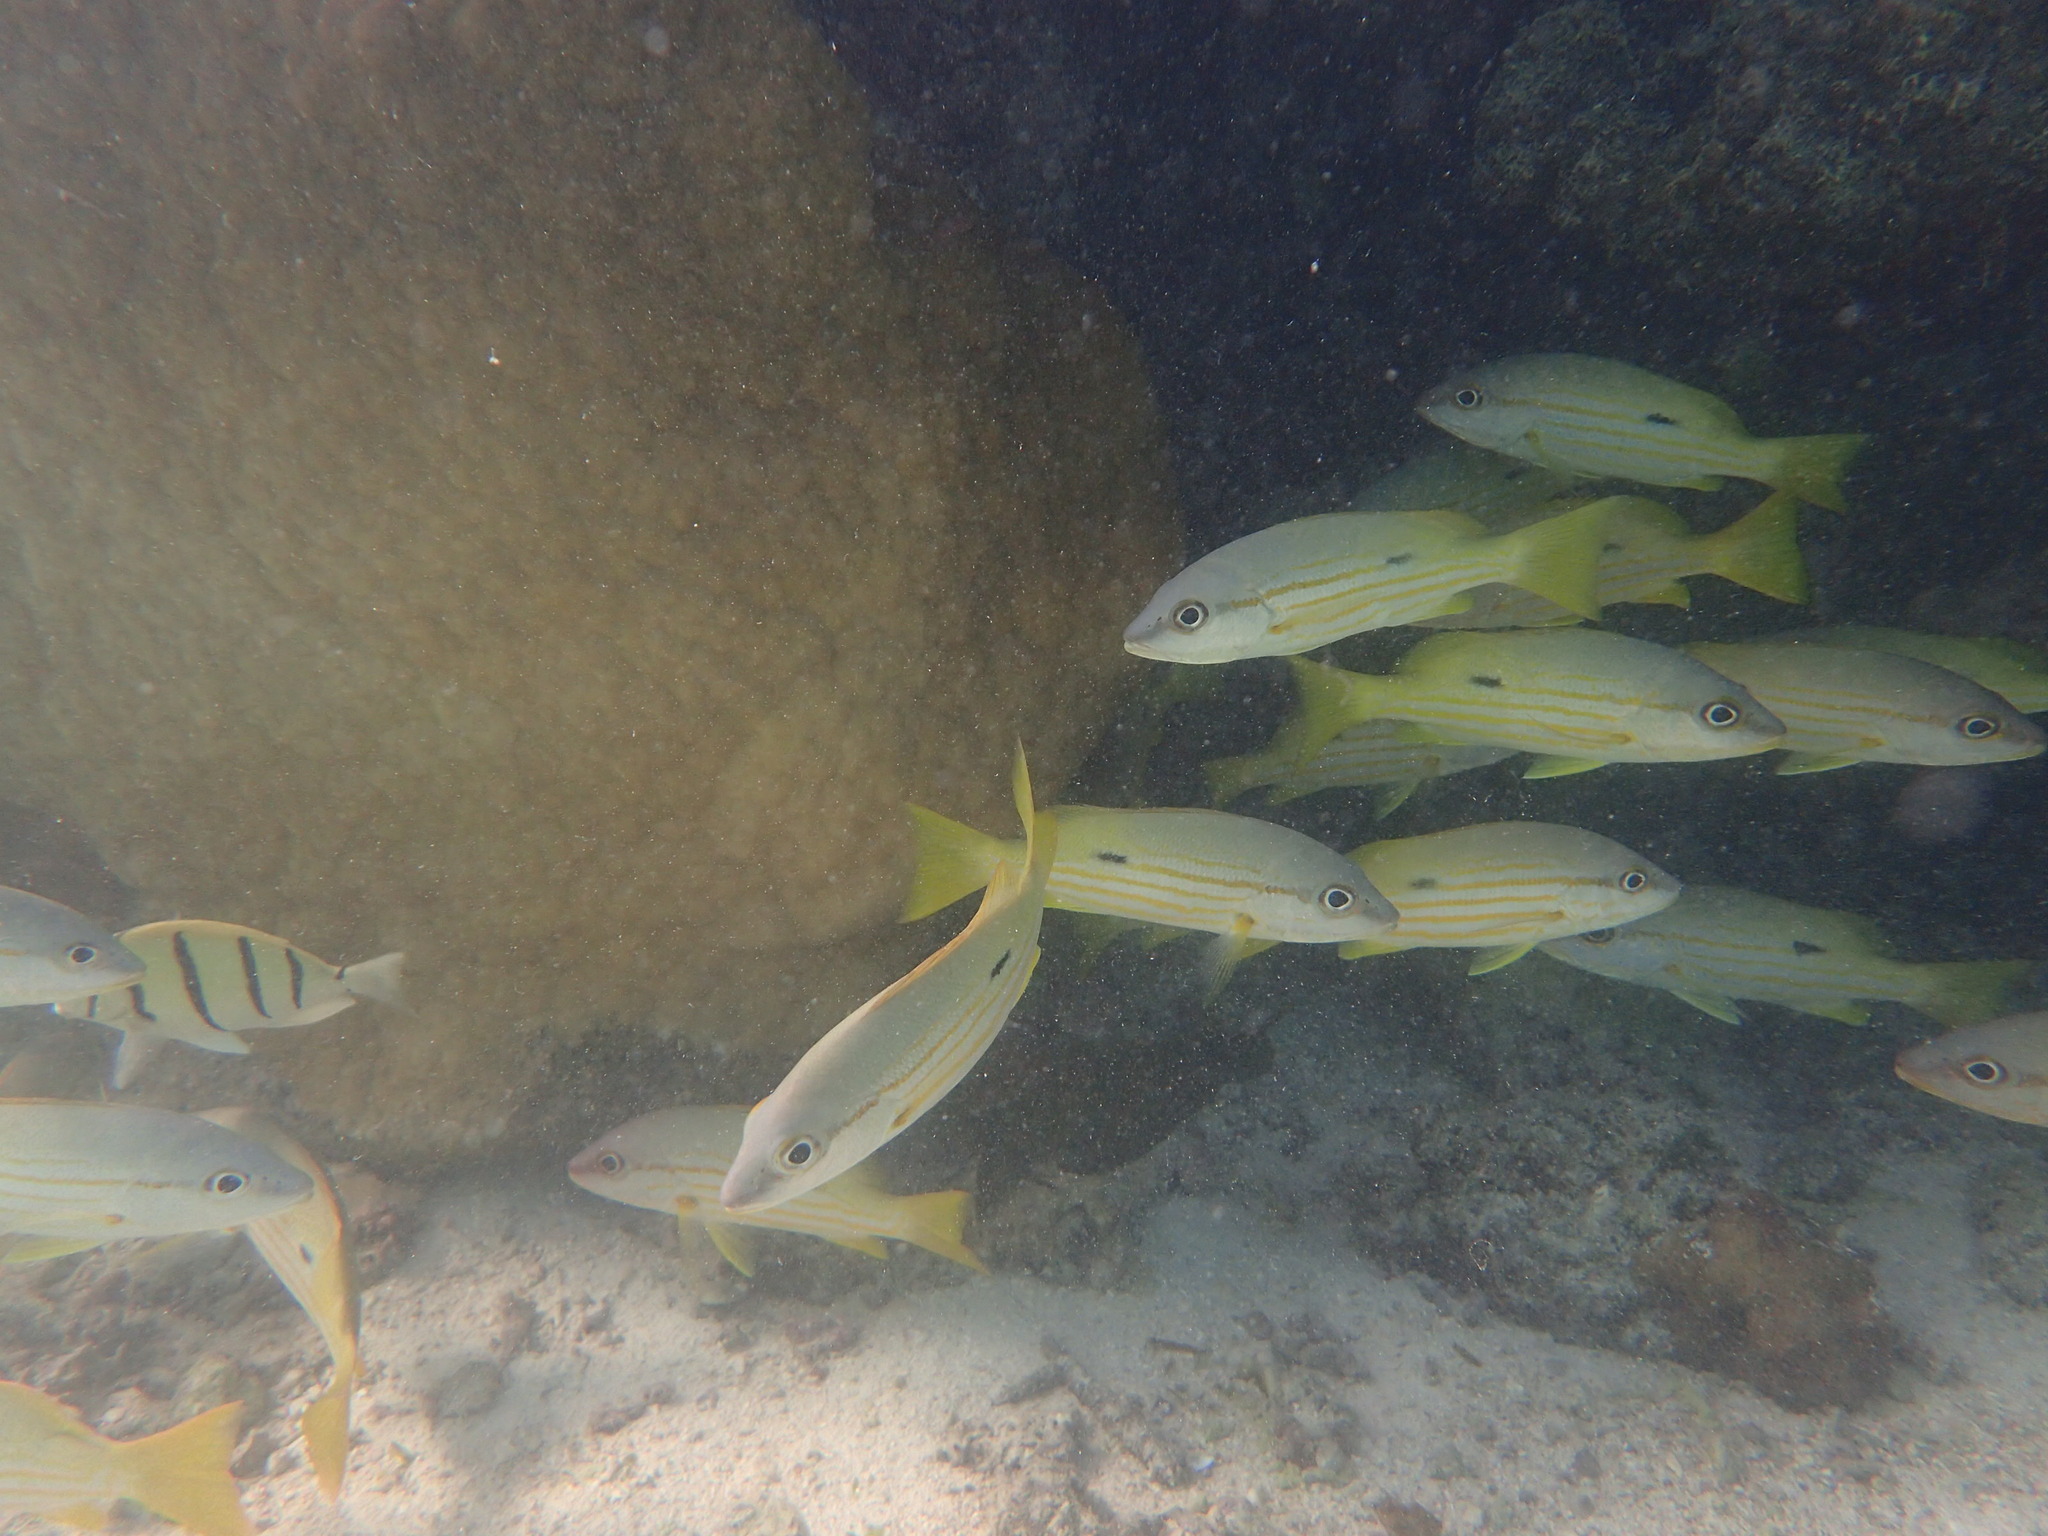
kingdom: Animalia
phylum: Chordata
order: Perciformes
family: Lutjanidae
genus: Lutjanus
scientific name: Lutjanus fulviflamma
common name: Blackspot snapper
